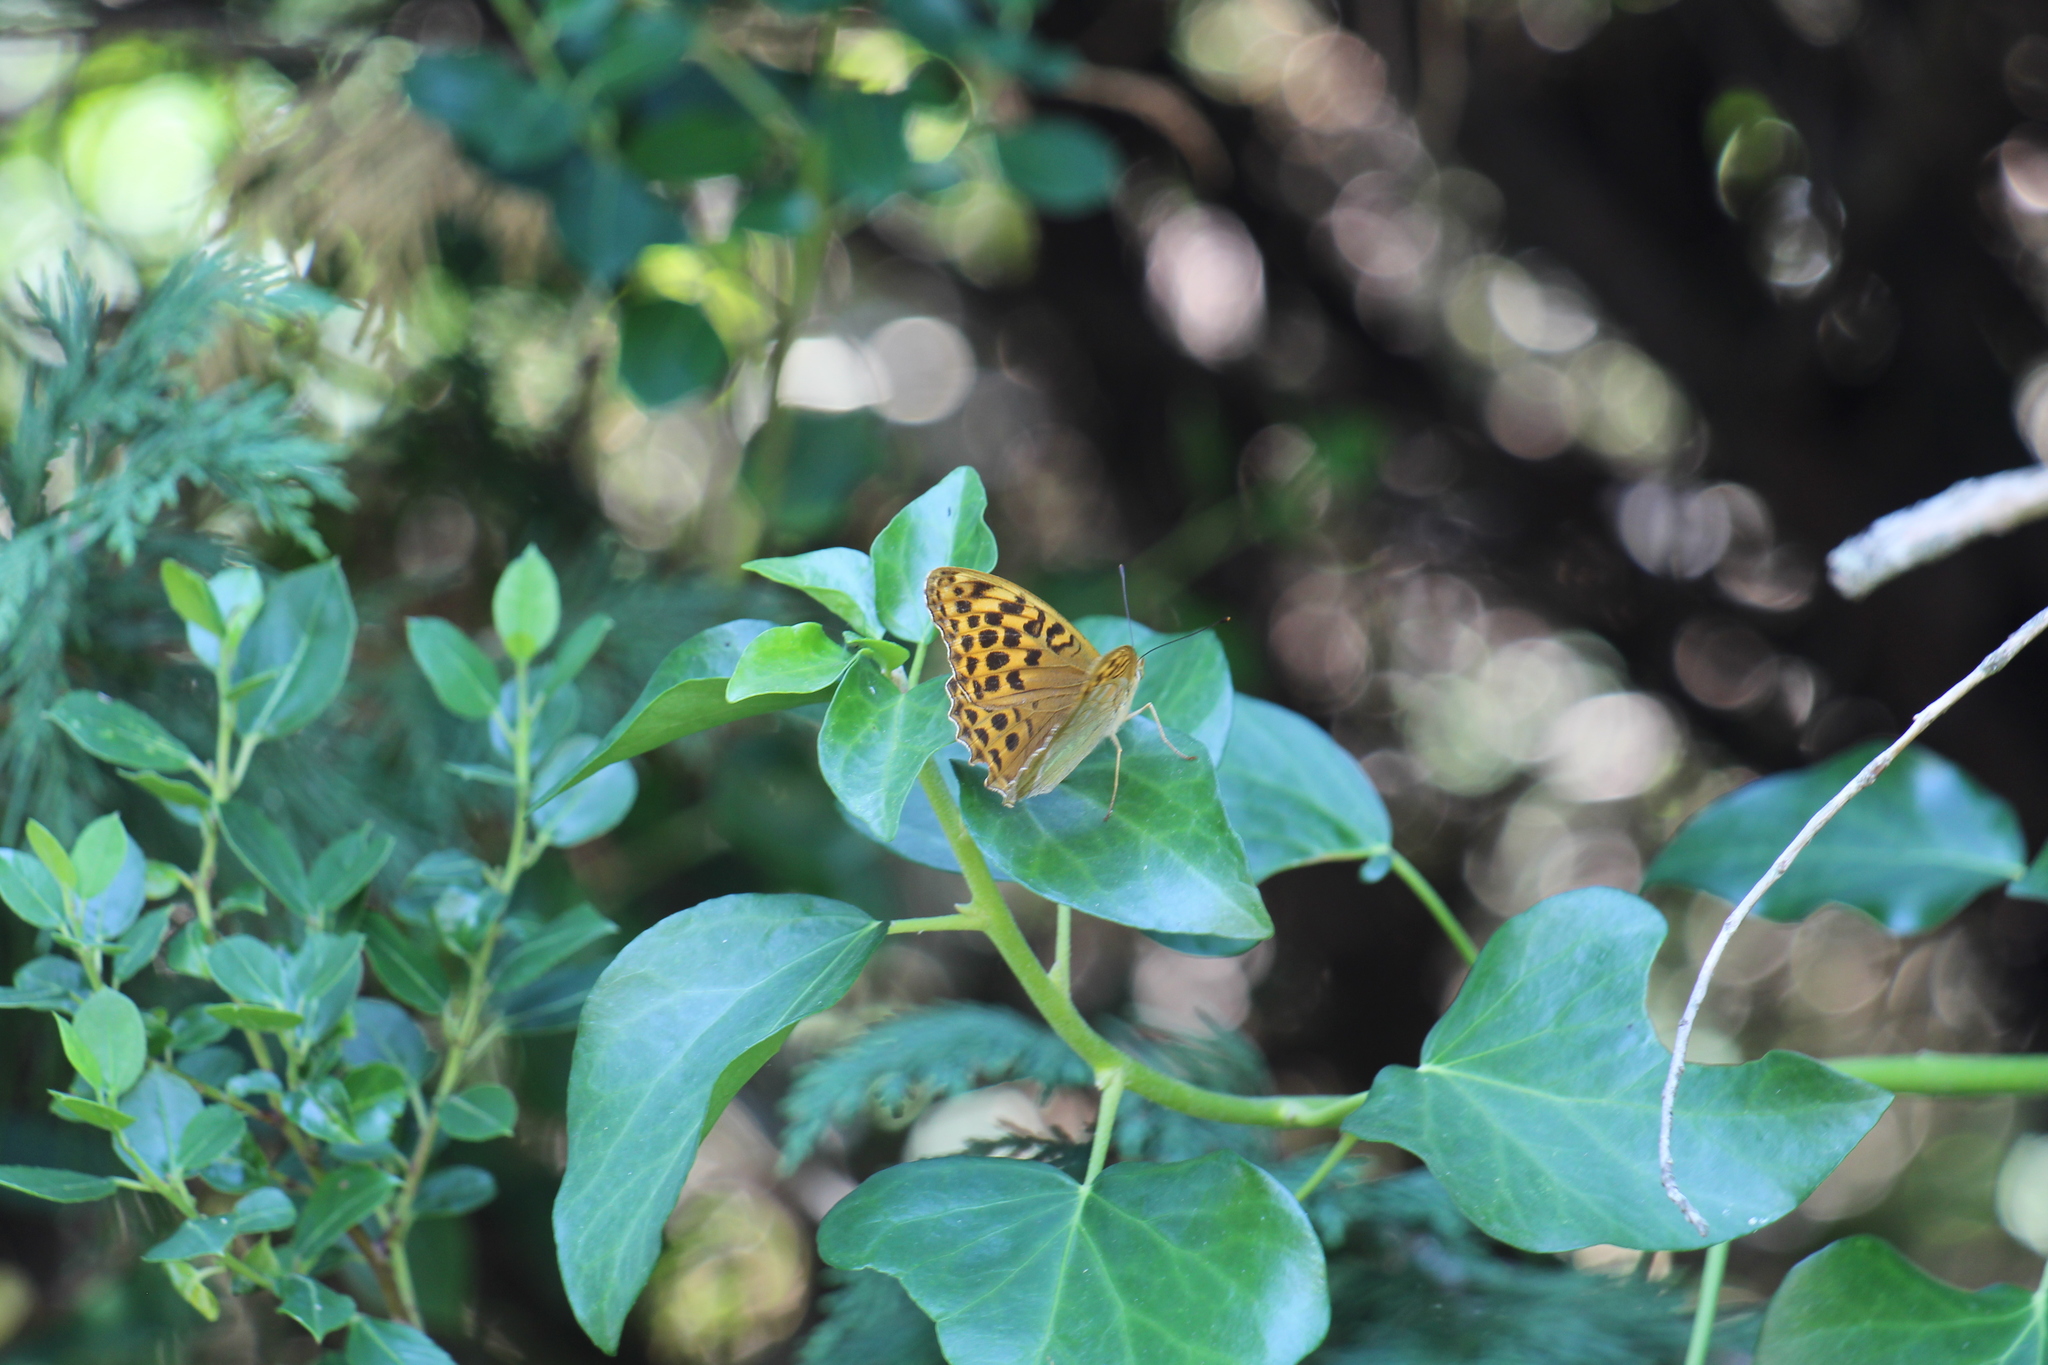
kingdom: Animalia
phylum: Arthropoda
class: Insecta
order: Lepidoptera
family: Nymphalidae
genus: Argynnis
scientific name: Argynnis paphia
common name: Silver-washed fritillary
